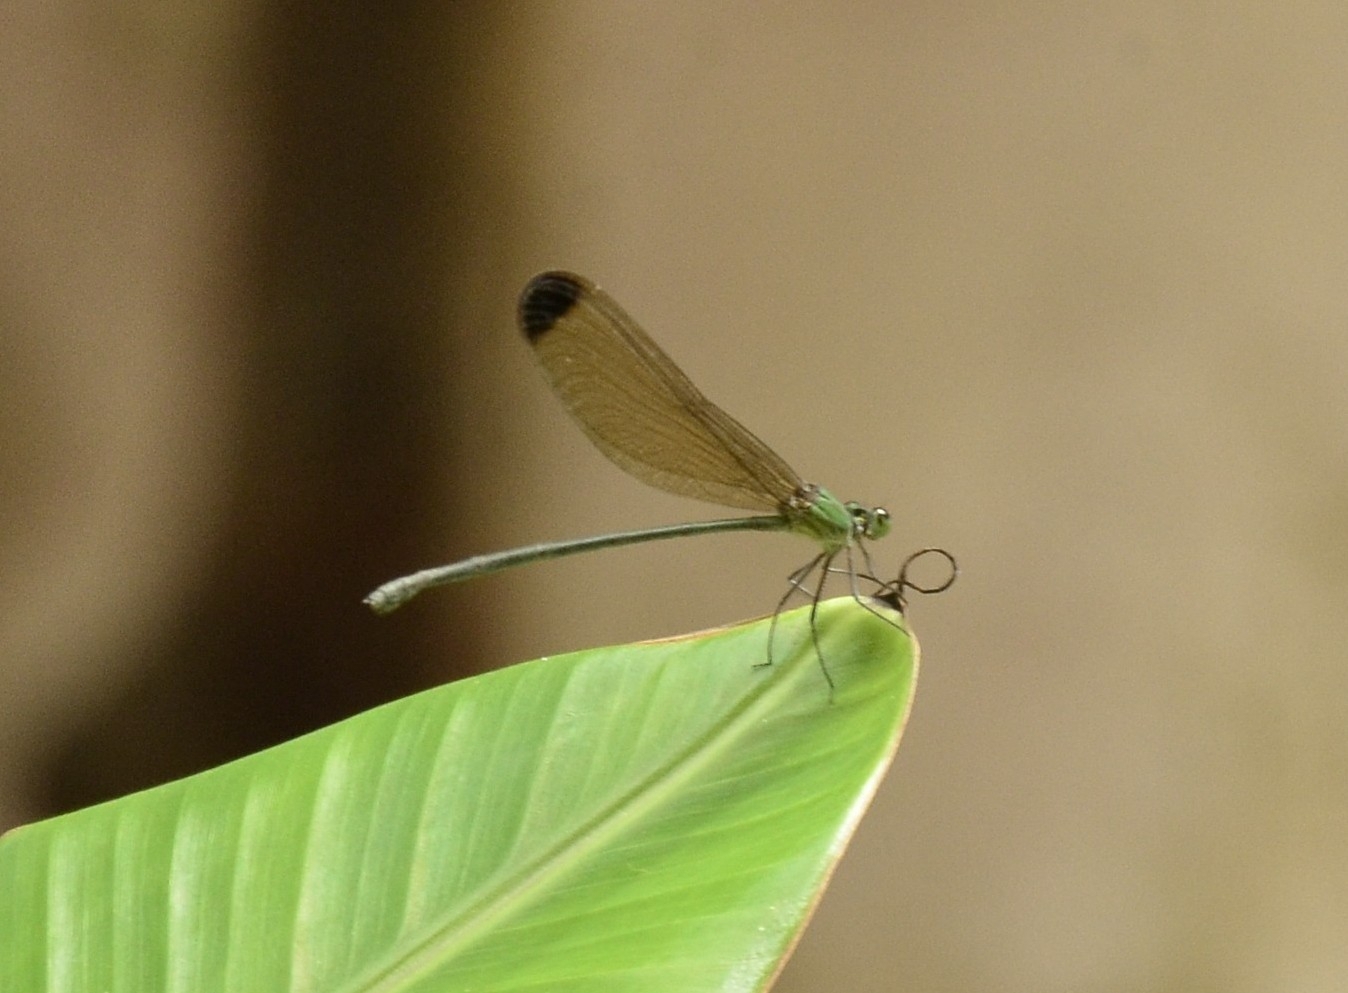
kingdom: Animalia
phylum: Arthropoda
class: Insecta
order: Odonata
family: Calopterygidae
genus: Vestalis
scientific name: Vestalis apicalis
